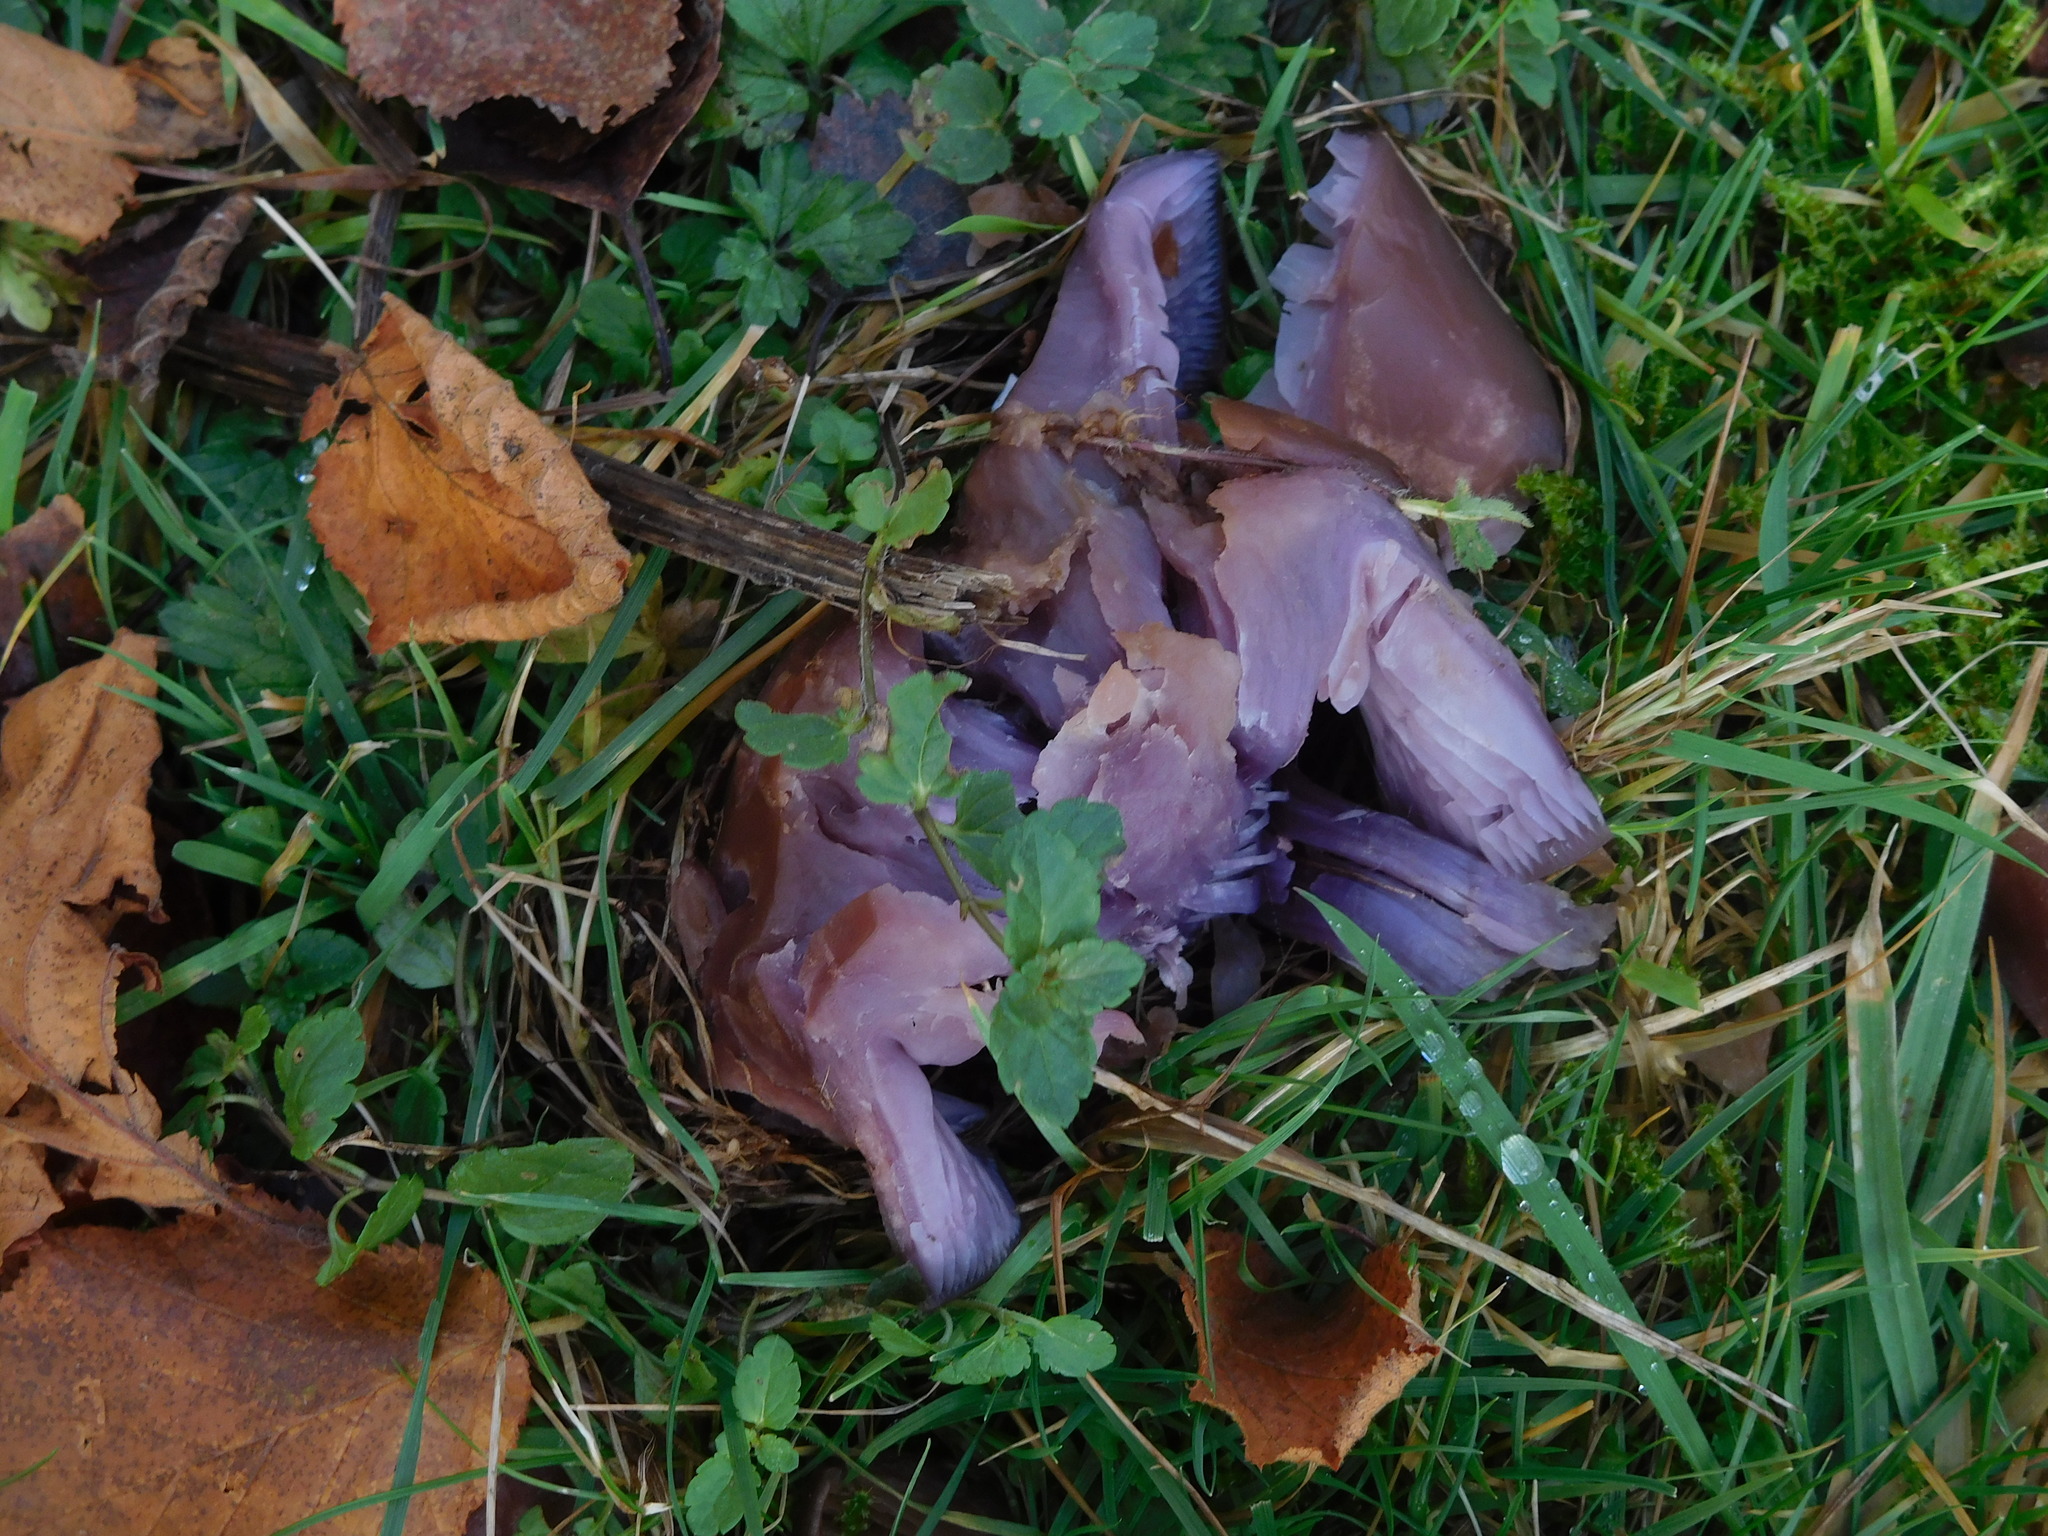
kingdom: Fungi
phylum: Basidiomycota
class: Agaricomycetes
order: Agaricales
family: Tricholomataceae
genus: Collybia
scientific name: Collybia
